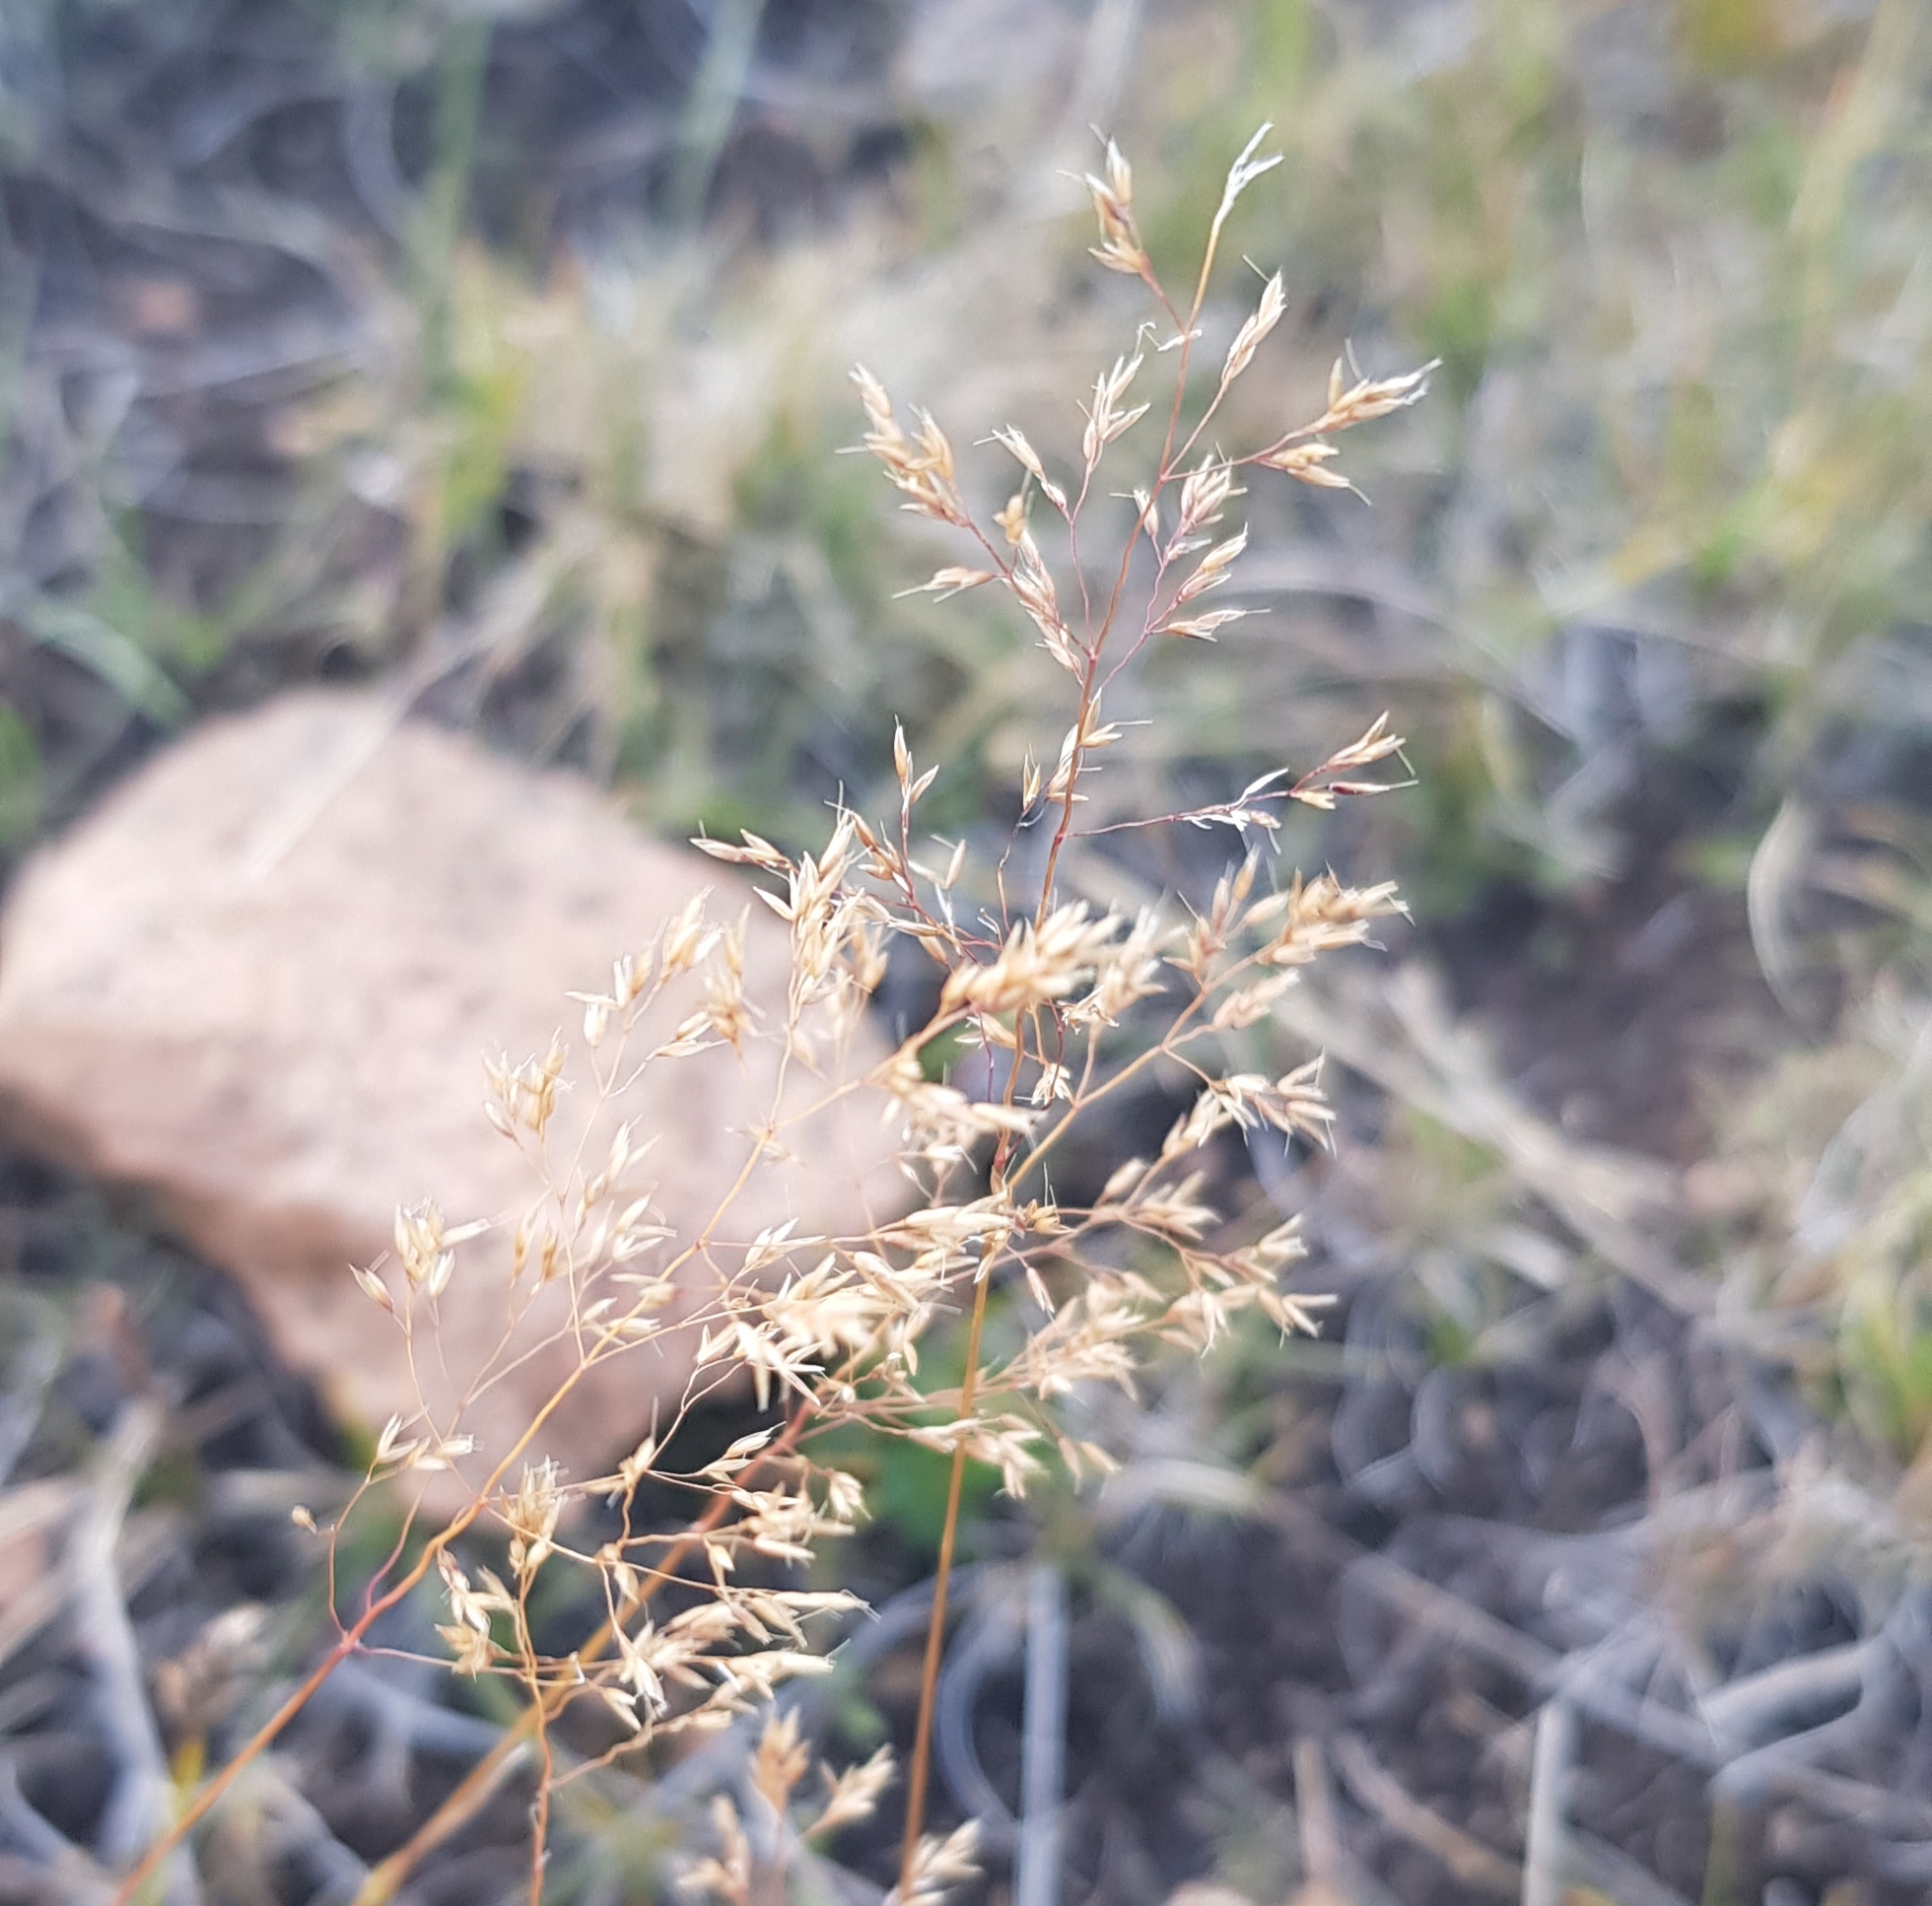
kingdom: Plantae
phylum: Tracheophyta
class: Liliopsida
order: Poales
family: Poaceae
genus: Poa
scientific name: Poa pratensis
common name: Kentucky bluegrass
